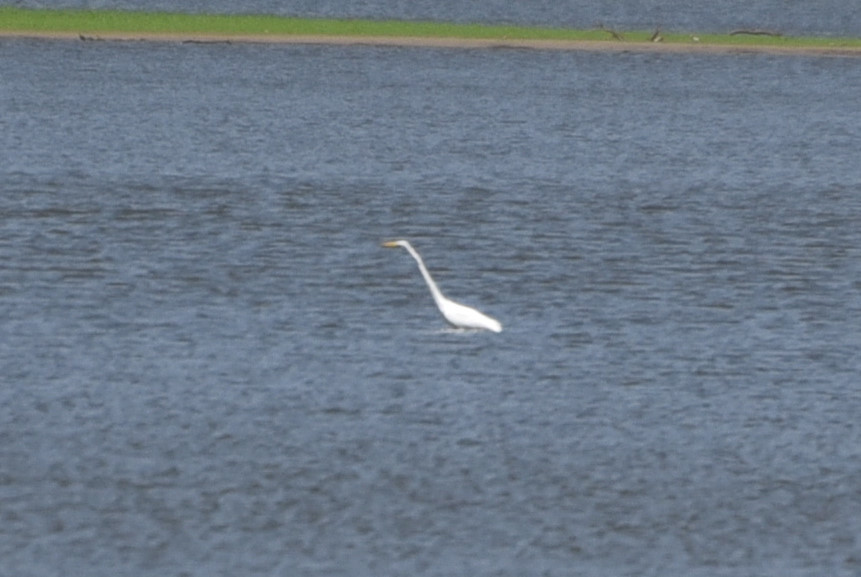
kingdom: Animalia
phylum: Chordata
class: Aves
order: Pelecaniformes
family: Ardeidae
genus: Ardea
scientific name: Ardea alba
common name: Great egret
